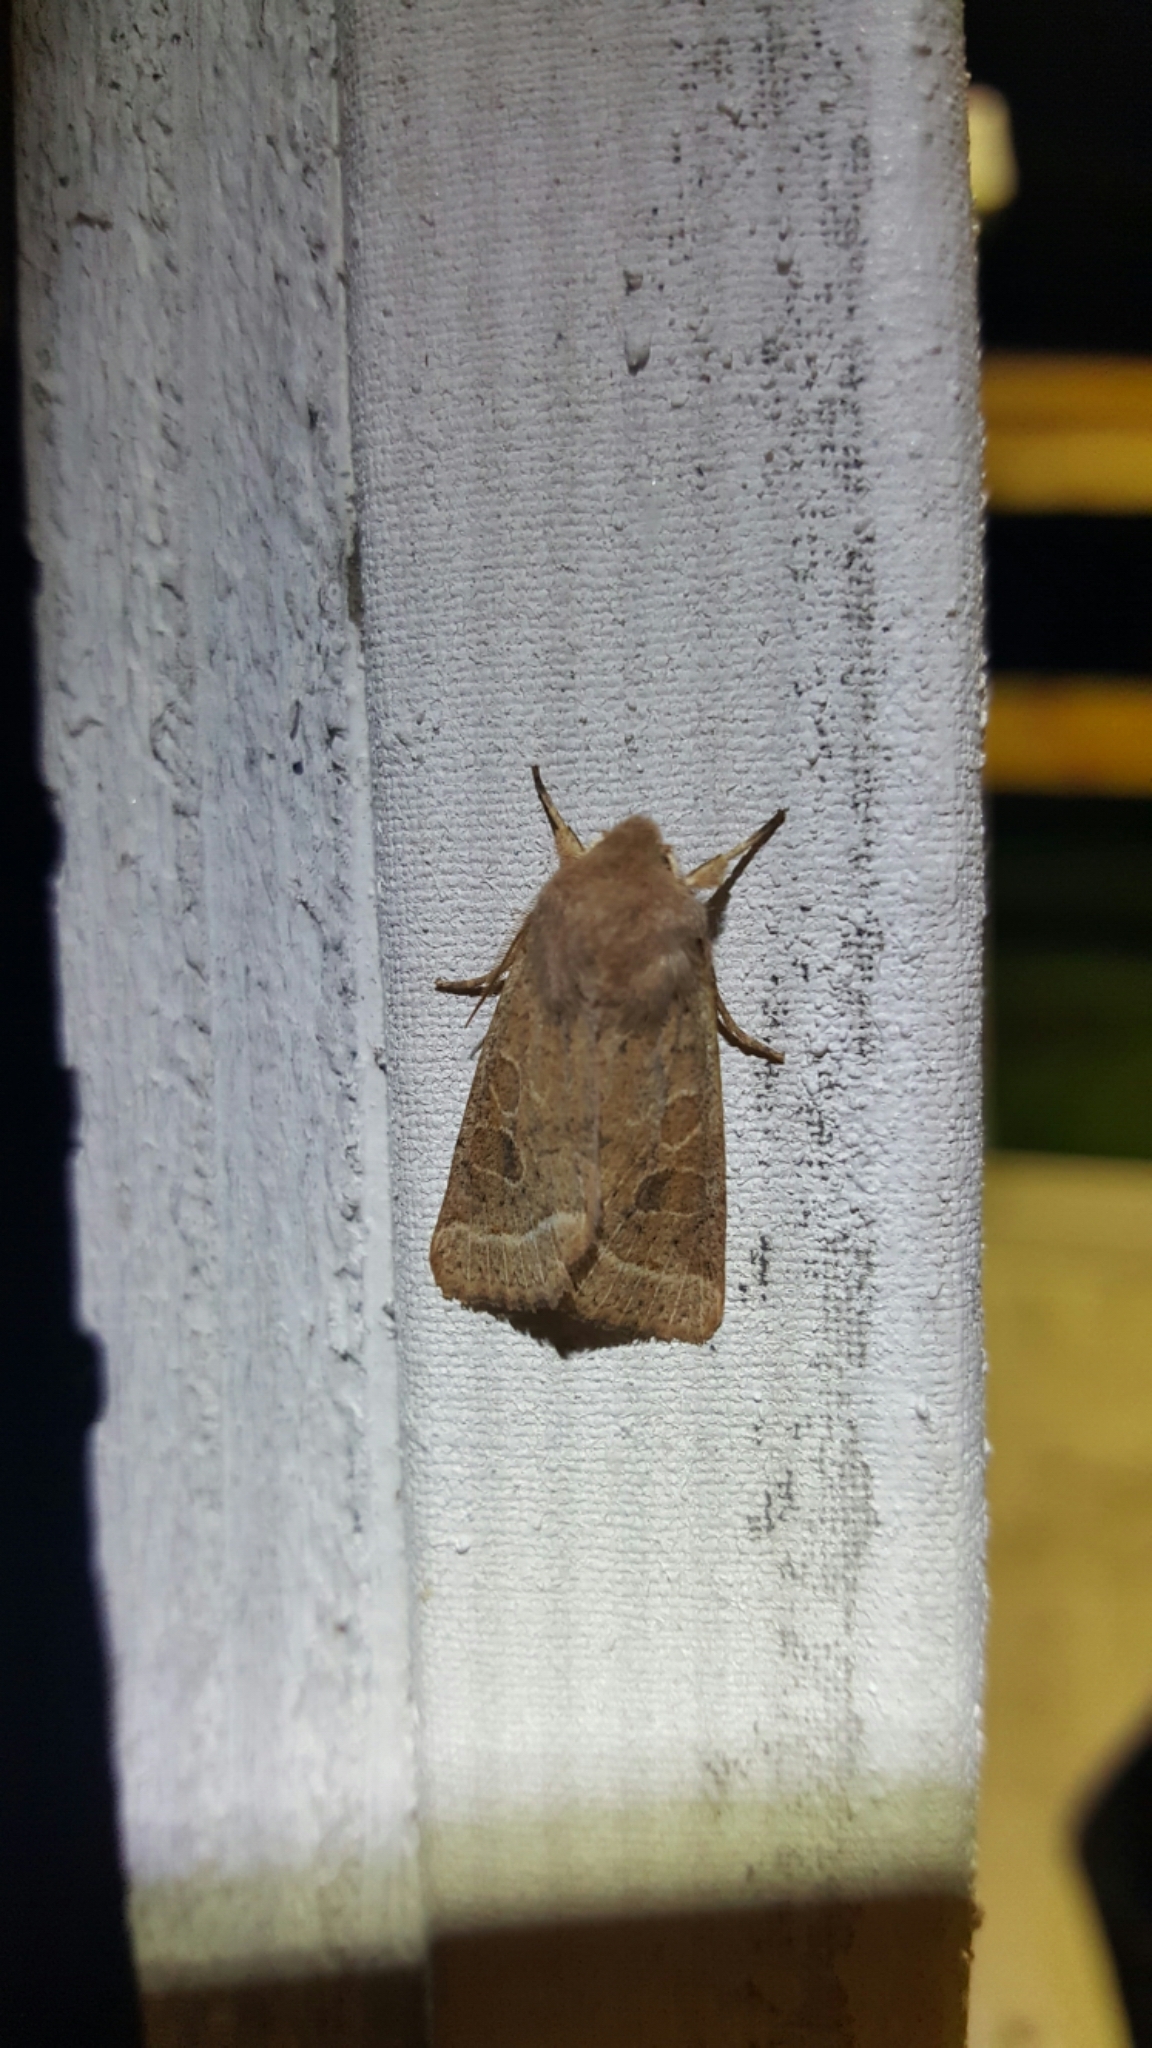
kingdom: Animalia
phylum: Arthropoda
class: Insecta
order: Lepidoptera
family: Noctuidae
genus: Orthosia
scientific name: Orthosia cerasi
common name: Common quaker
